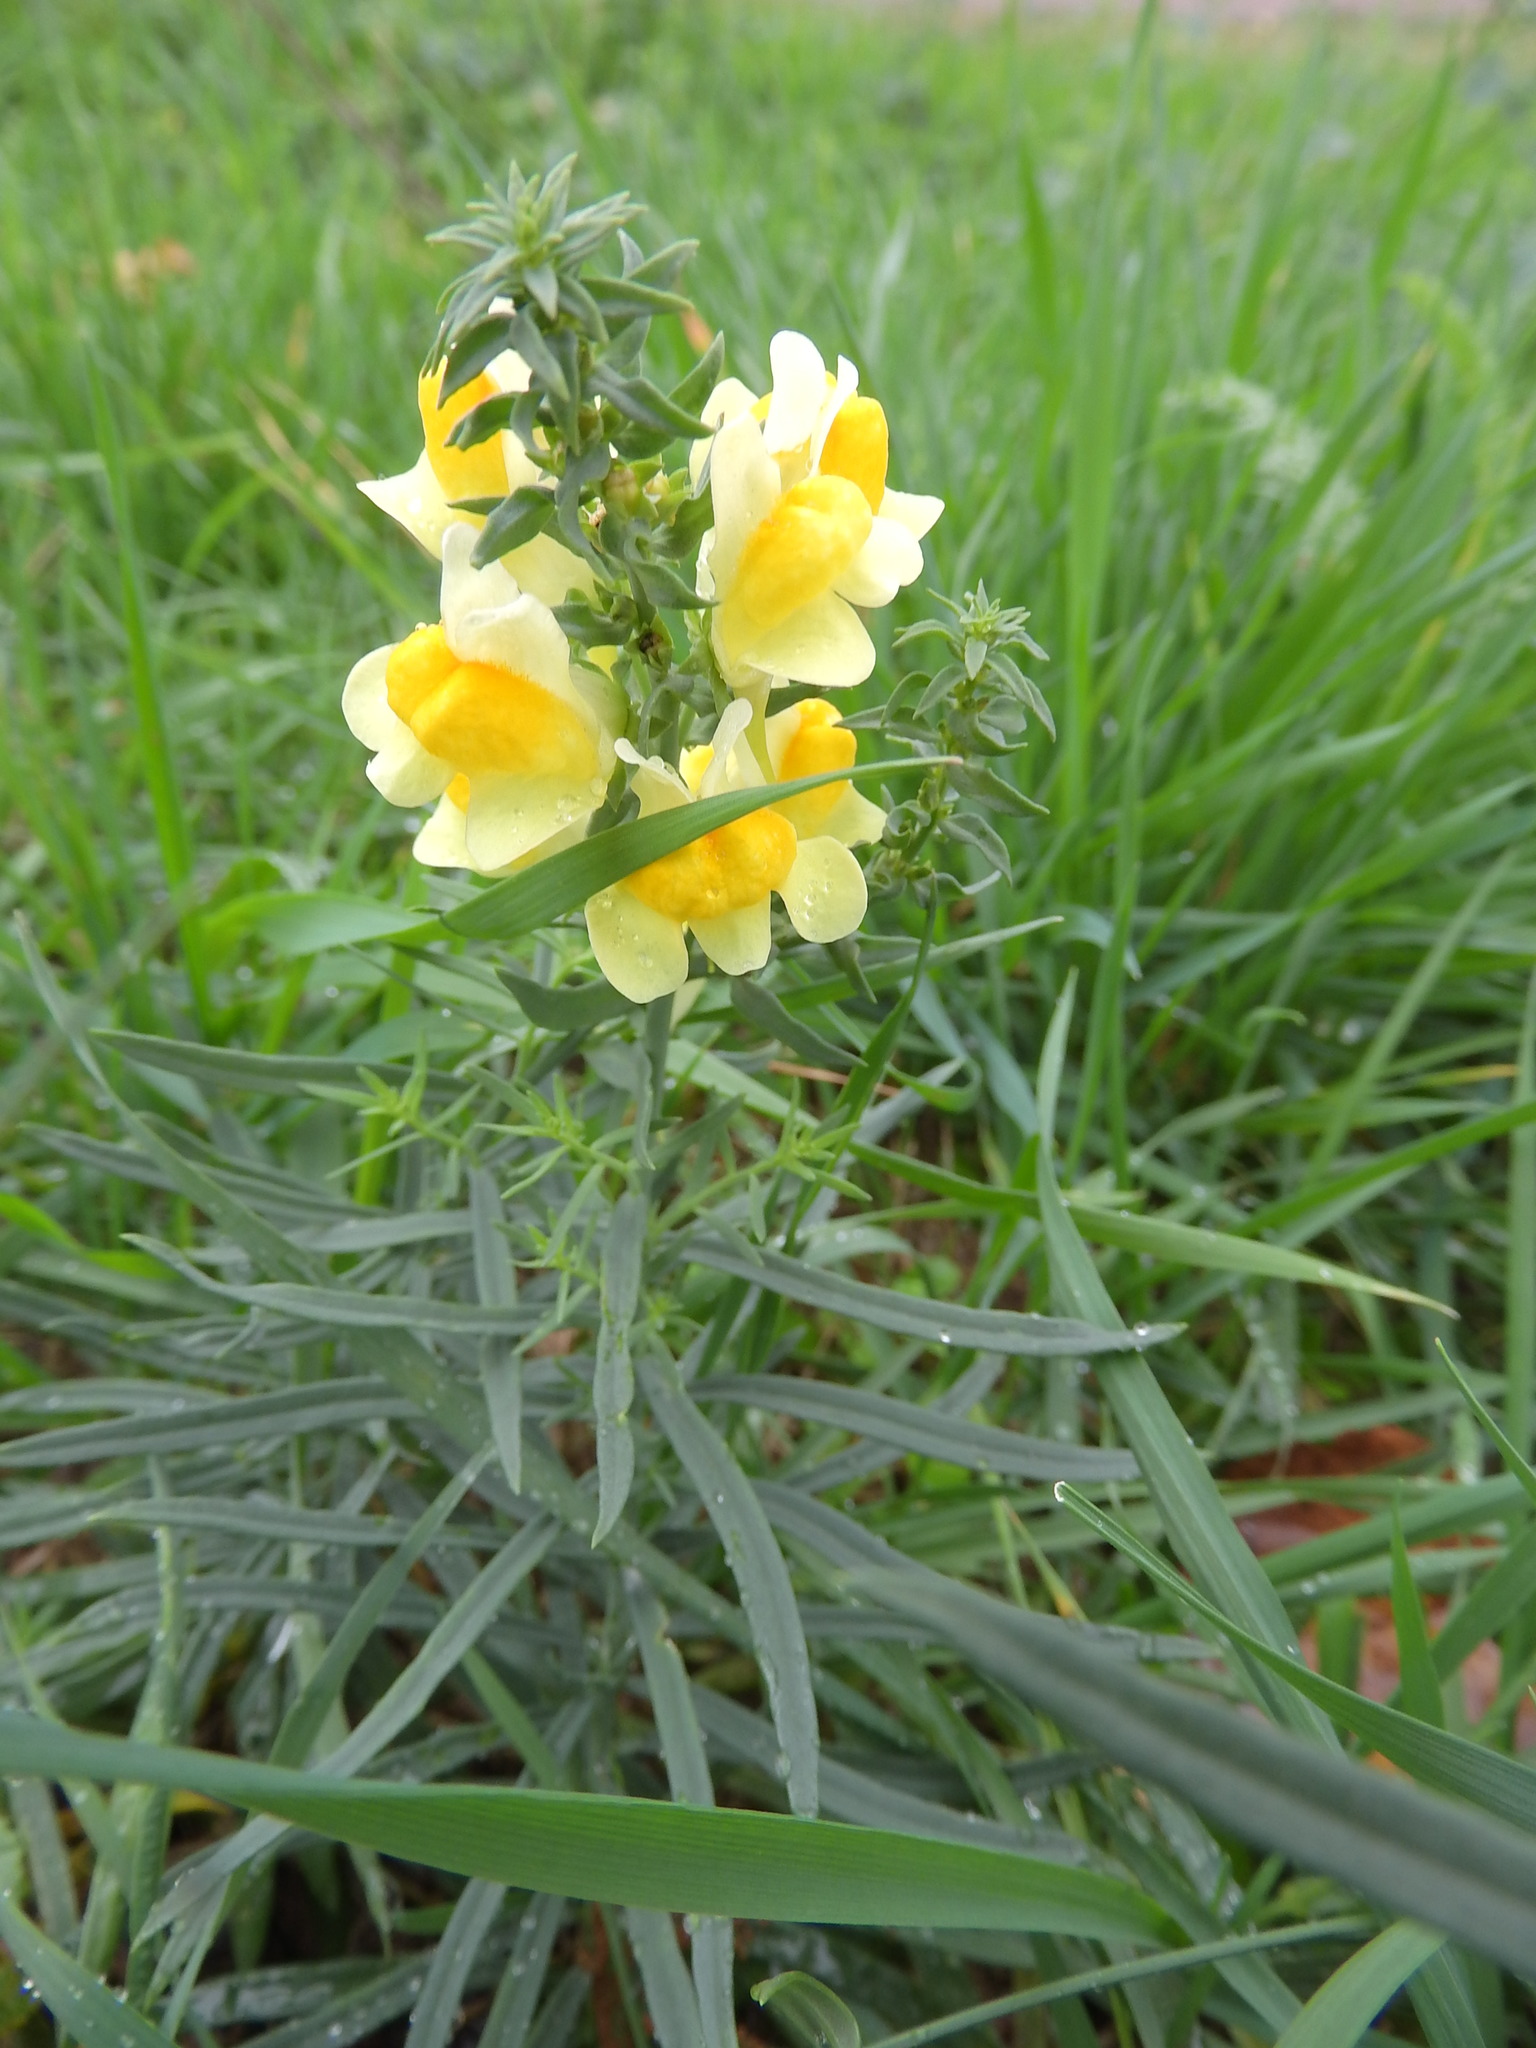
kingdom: Plantae
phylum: Tracheophyta
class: Magnoliopsida
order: Lamiales
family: Plantaginaceae
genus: Linaria
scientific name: Linaria vulgaris
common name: Butter and eggs
